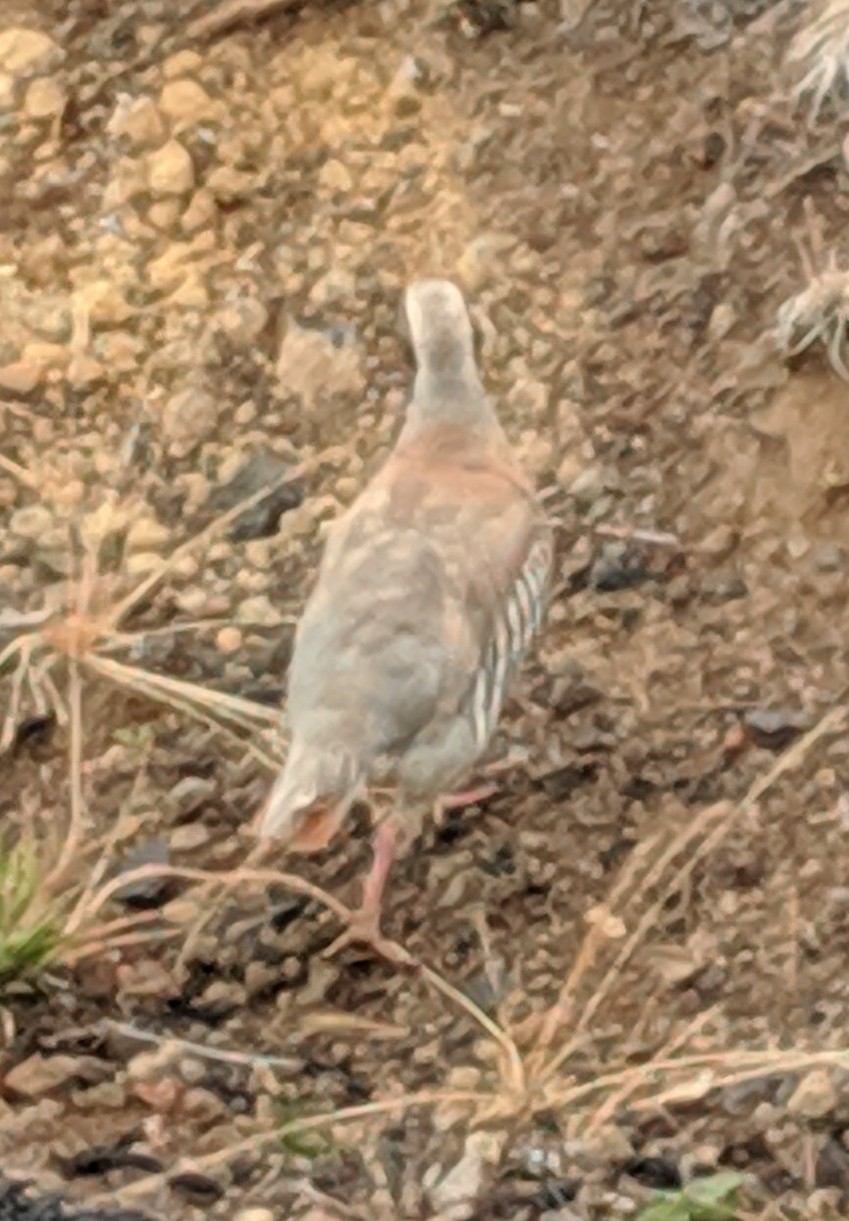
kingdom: Animalia
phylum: Chordata
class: Aves
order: Galliformes
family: Phasianidae
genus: Alectoris
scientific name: Alectoris chukar
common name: Chukar
